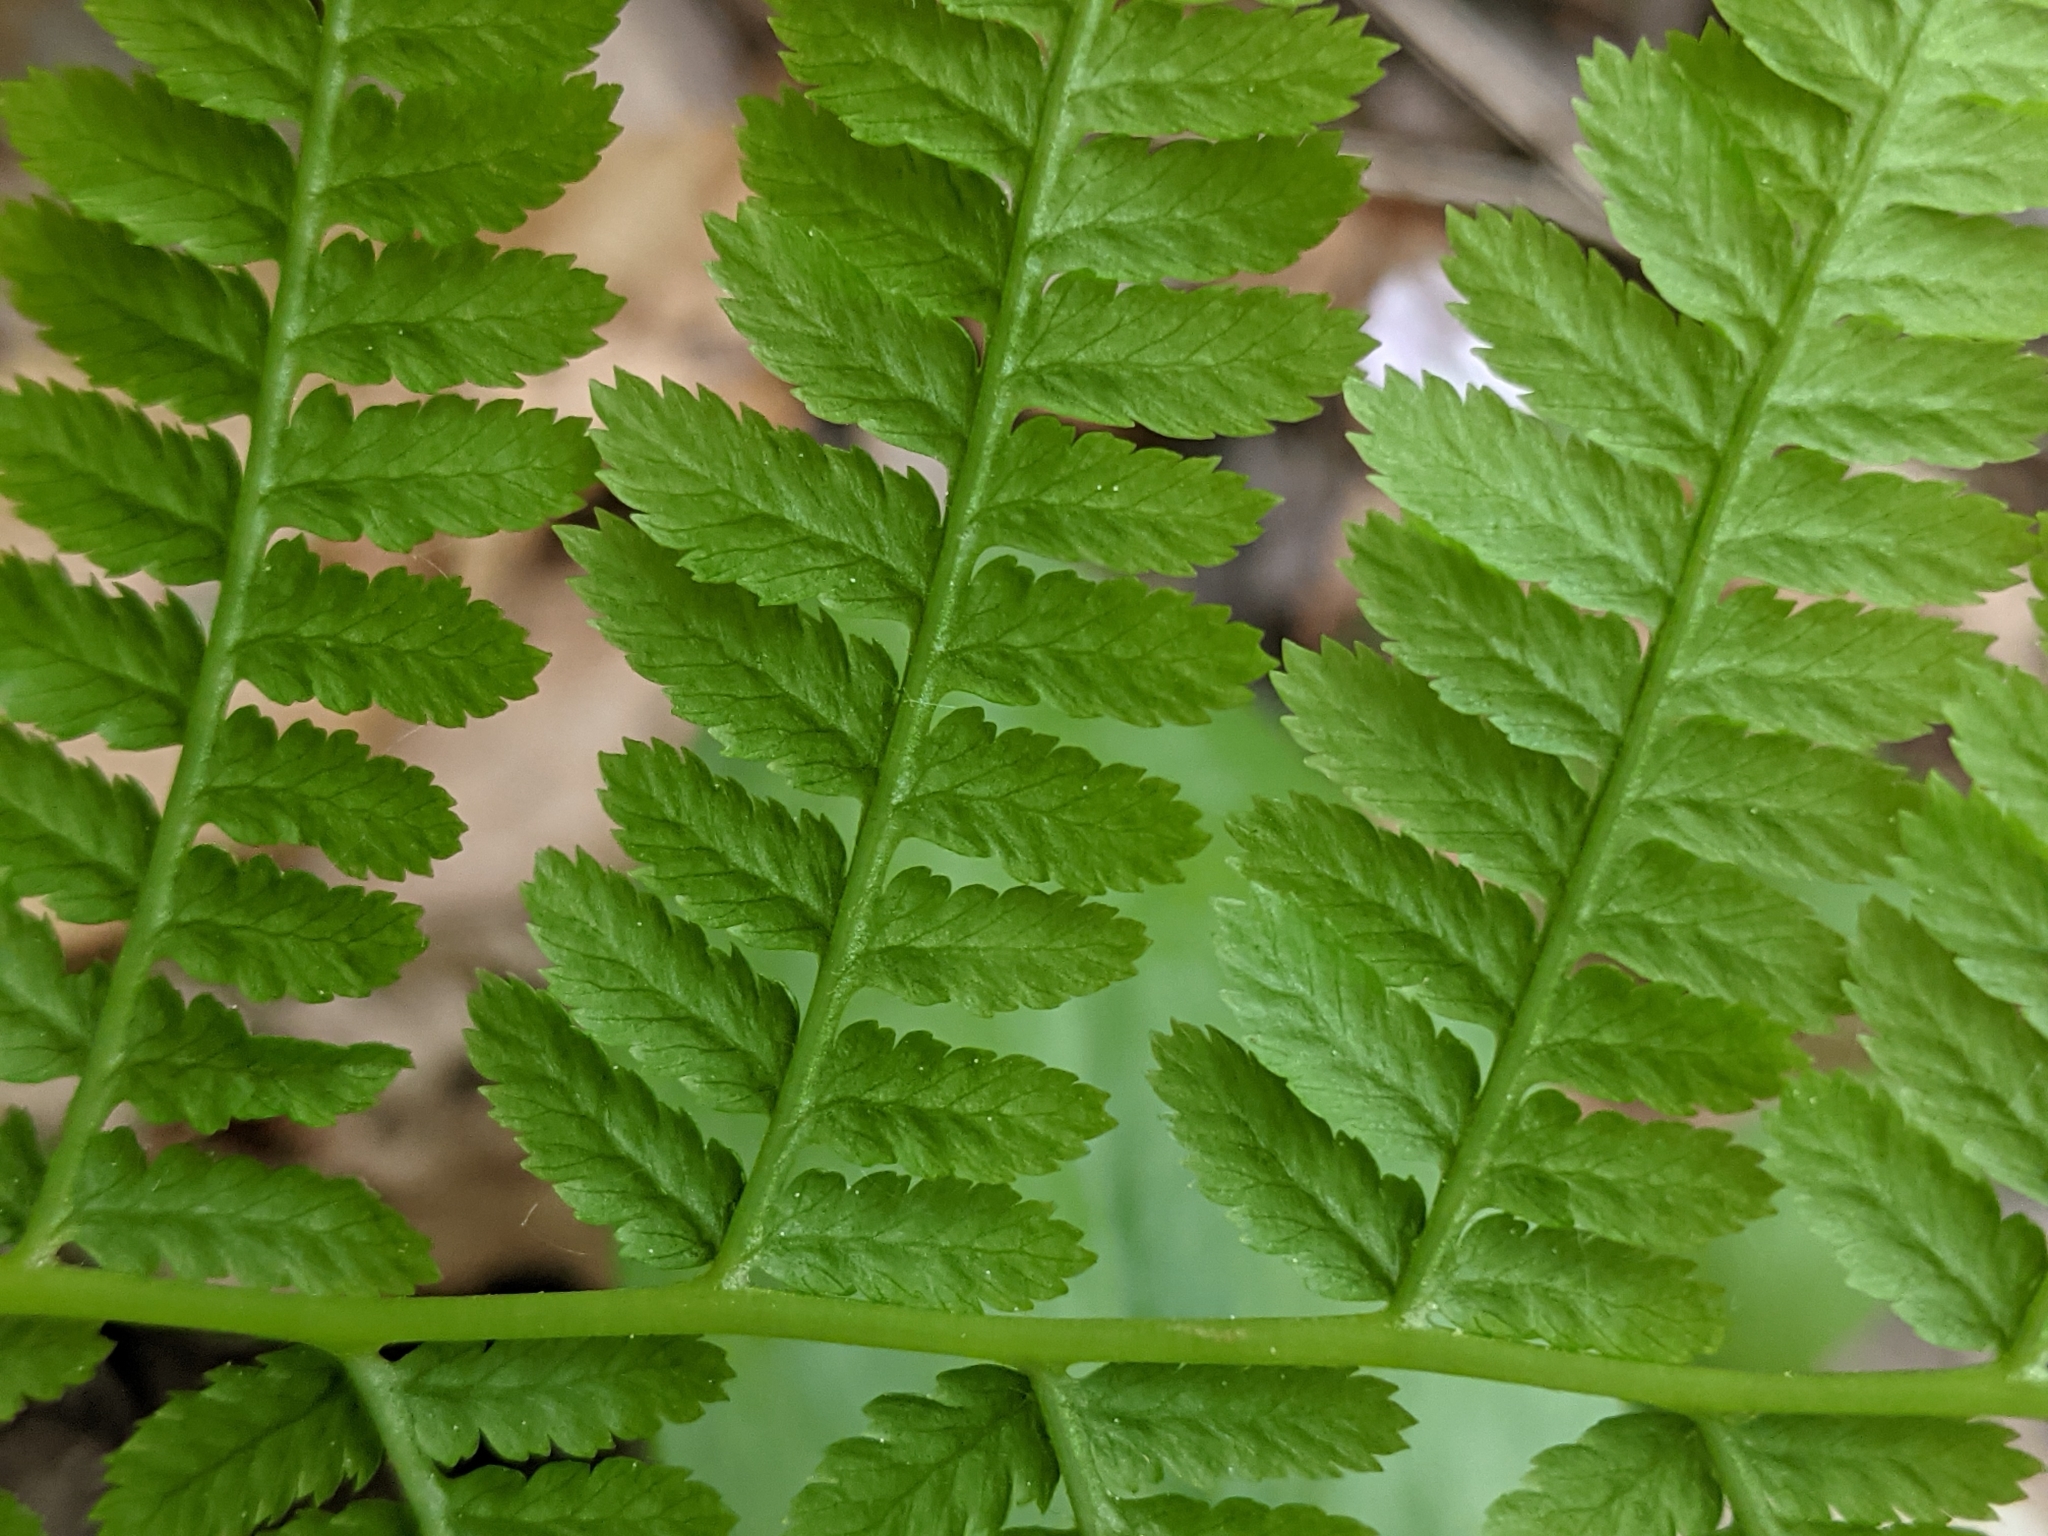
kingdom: Plantae
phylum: Tracheophyta
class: Polypodiopsida
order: Polypodiales
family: Athyriaceae
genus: Athyrium
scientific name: Athyrium angustum
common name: Northern lady fern
